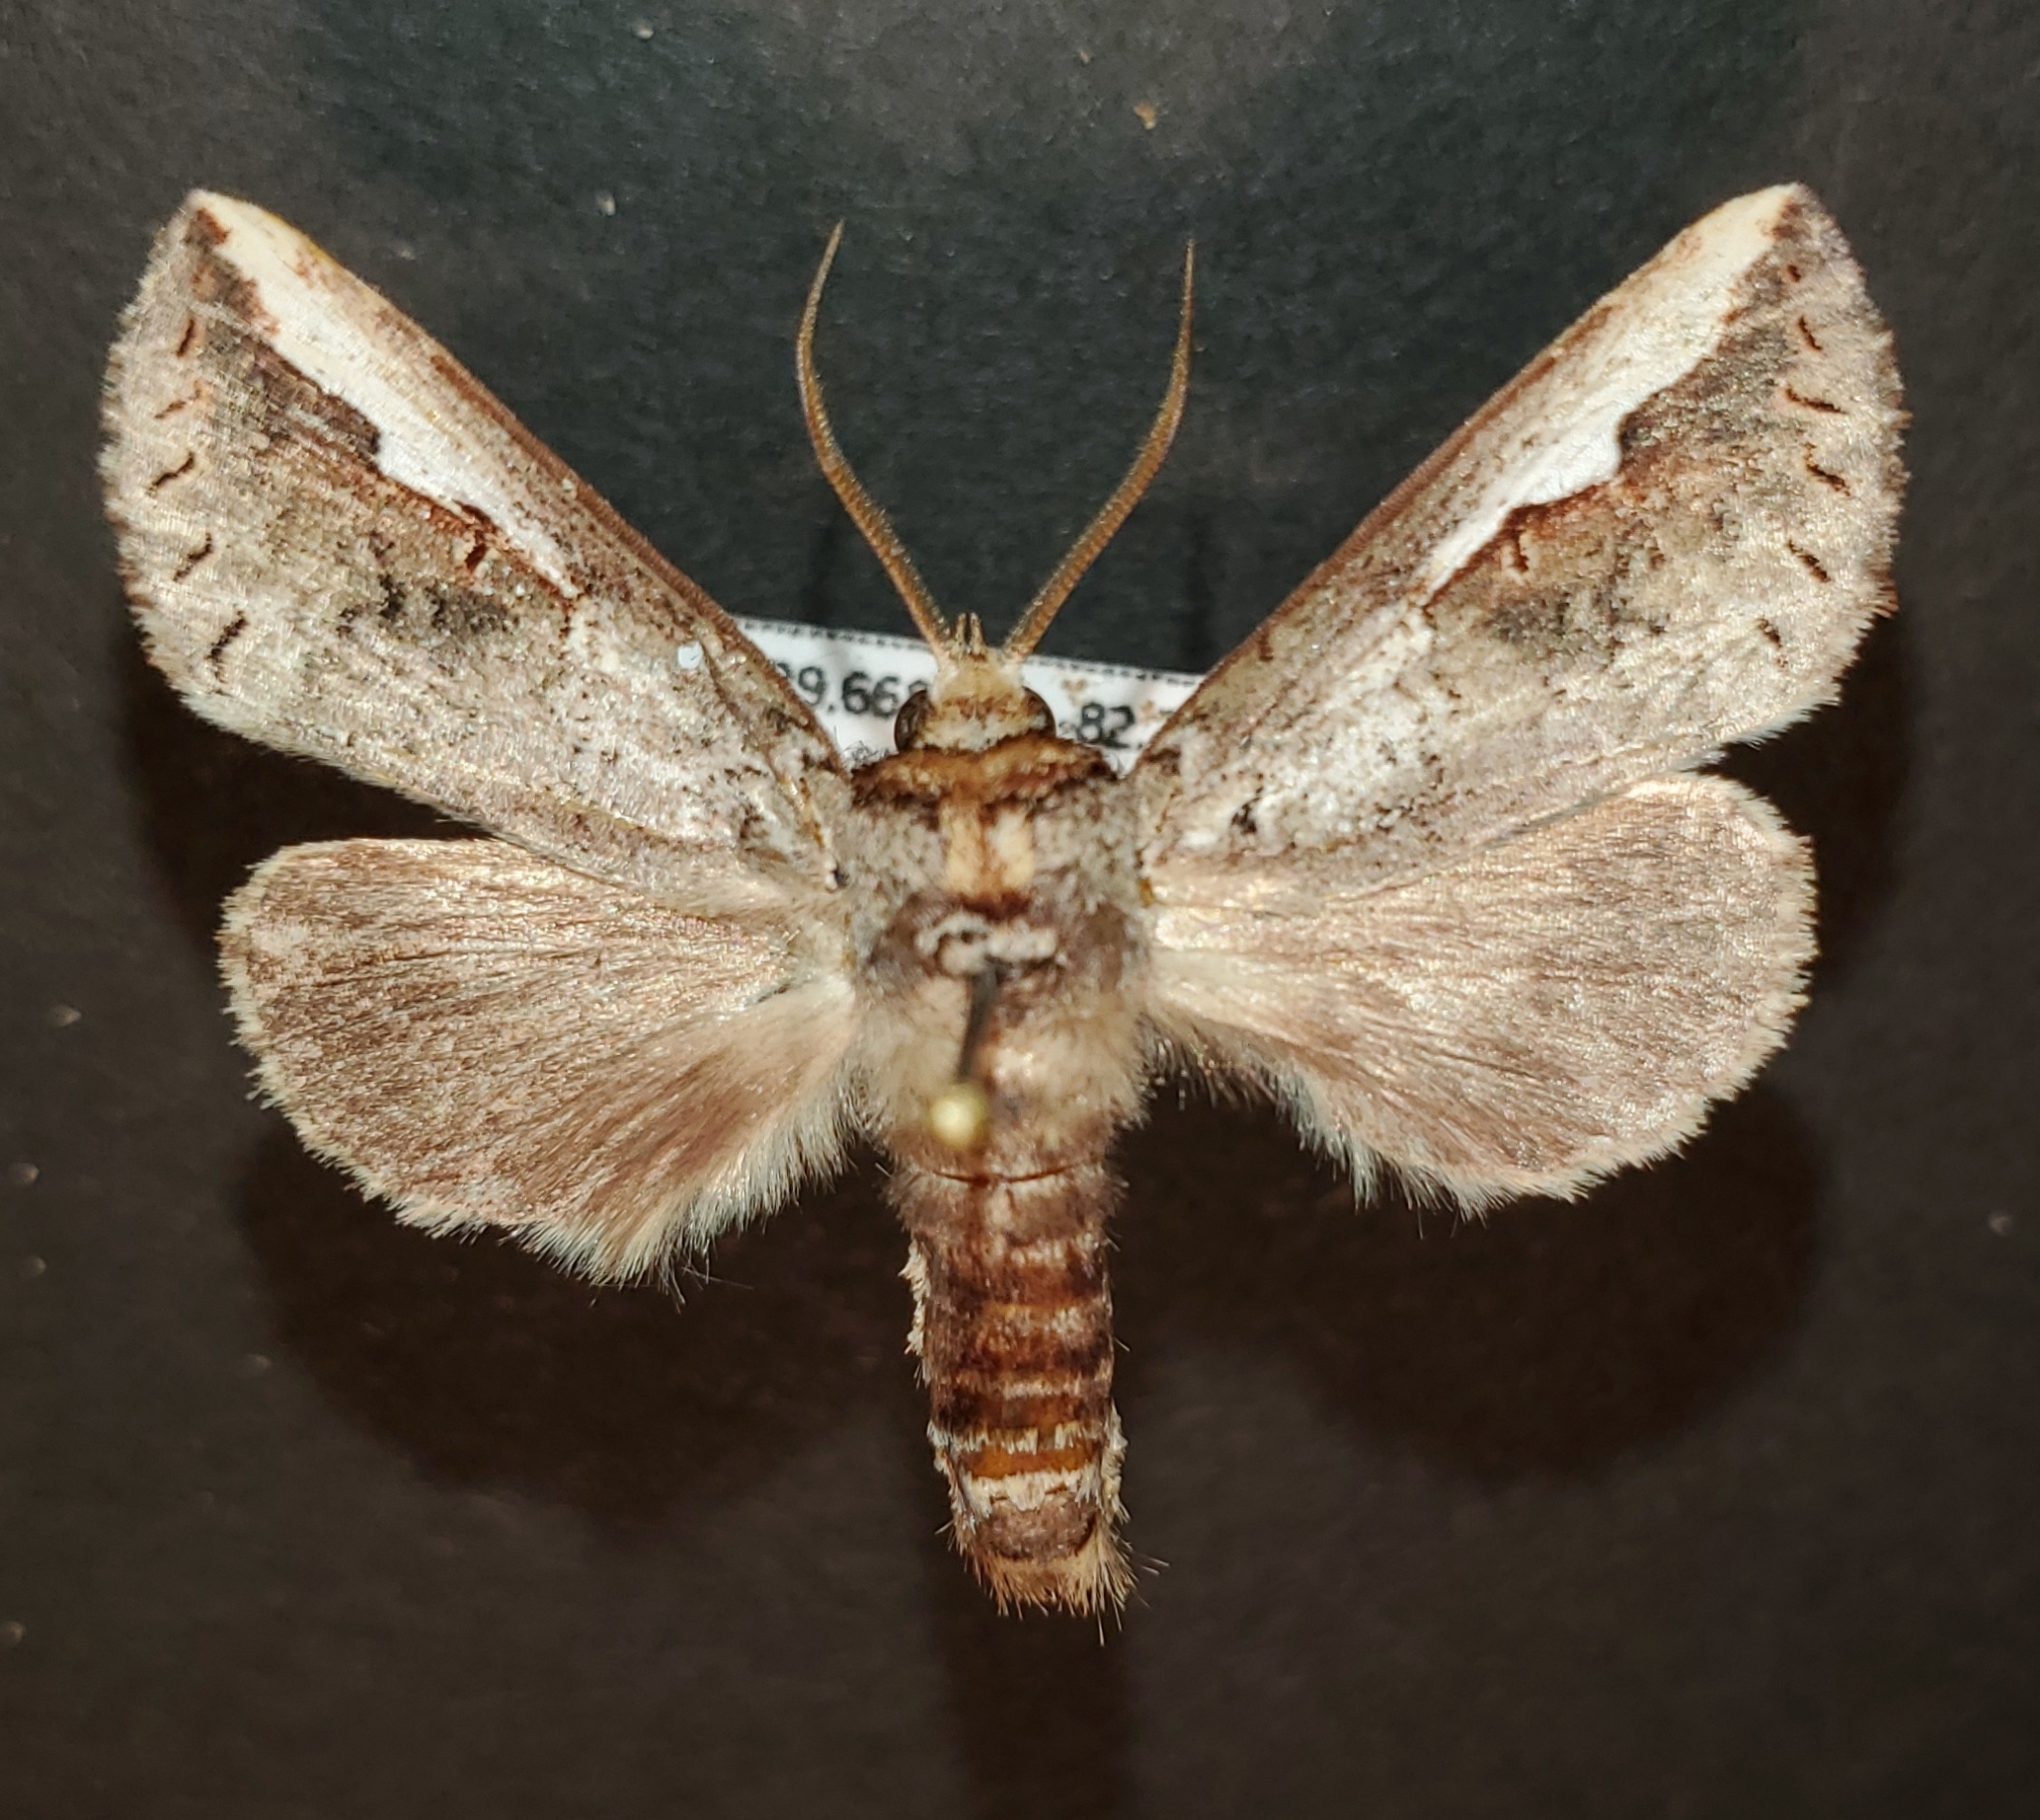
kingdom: Animalia
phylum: Arthropoda
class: Insecta
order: Lepidoptera
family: Notodontidae
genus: Symmerista
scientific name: Symmerista albifrons
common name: White-headed prominent
